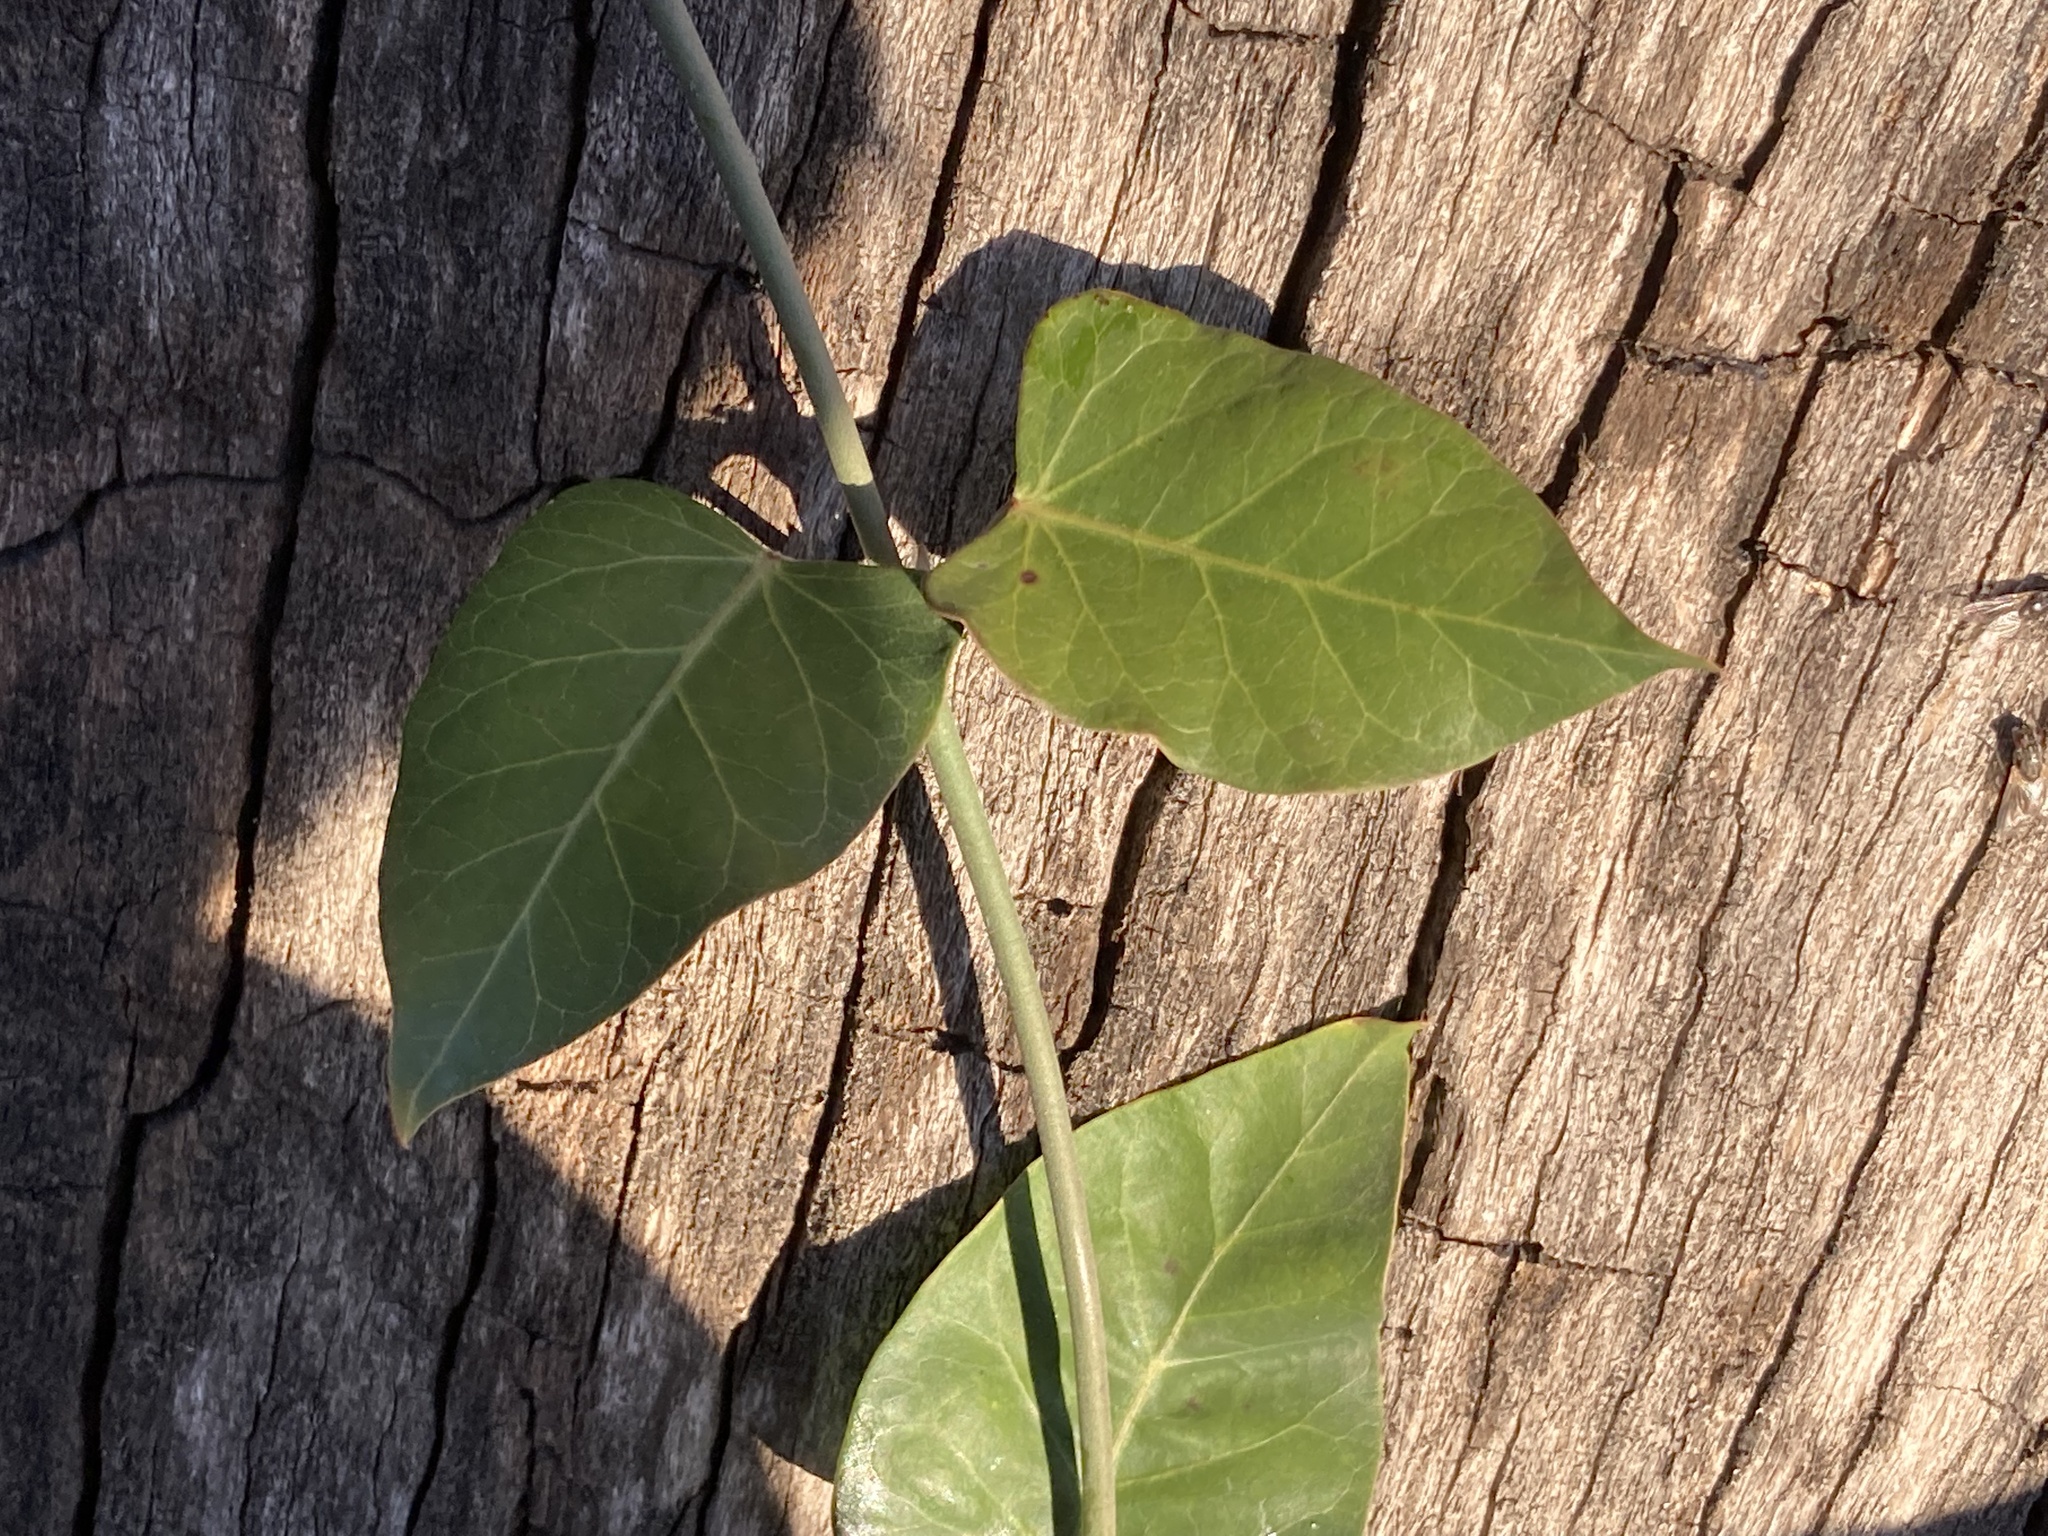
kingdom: Plantae
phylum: Tracheophyta
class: Magnoliopsida
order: Gentianales
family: Apocynaceae
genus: Araujia
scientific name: Araujia sericifera
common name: White bladderflower
